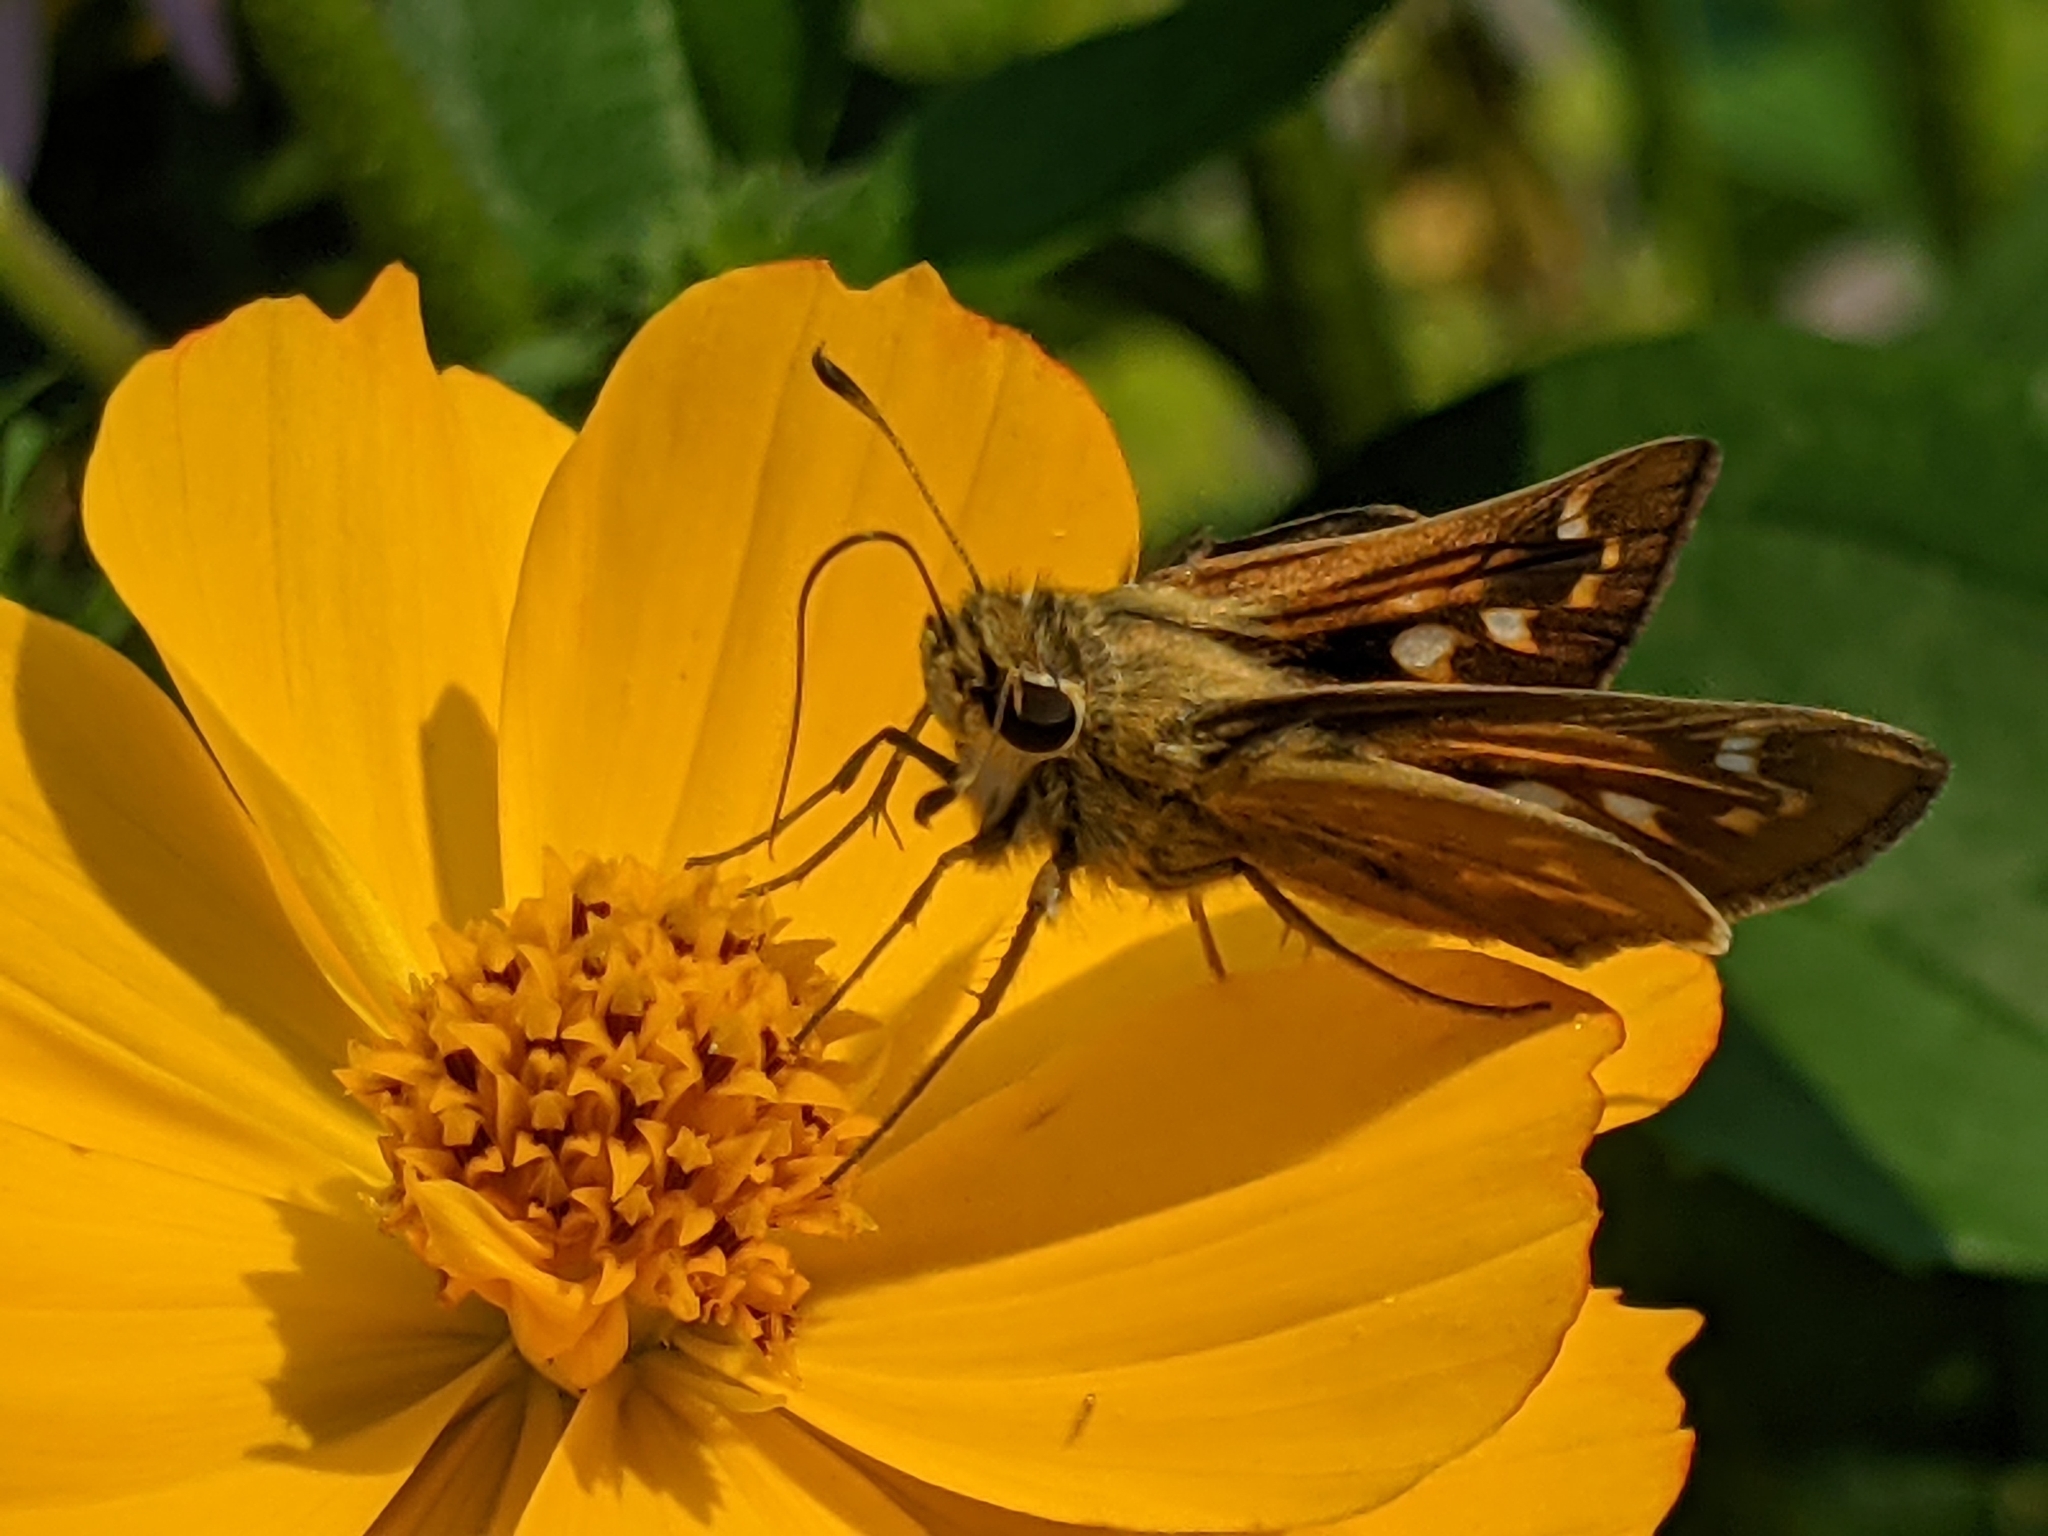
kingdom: Animalia
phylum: Arthropoda
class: Insecta
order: Lepidoptera
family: Hesperiidae
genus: Atalopedes
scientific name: Atalopedes
